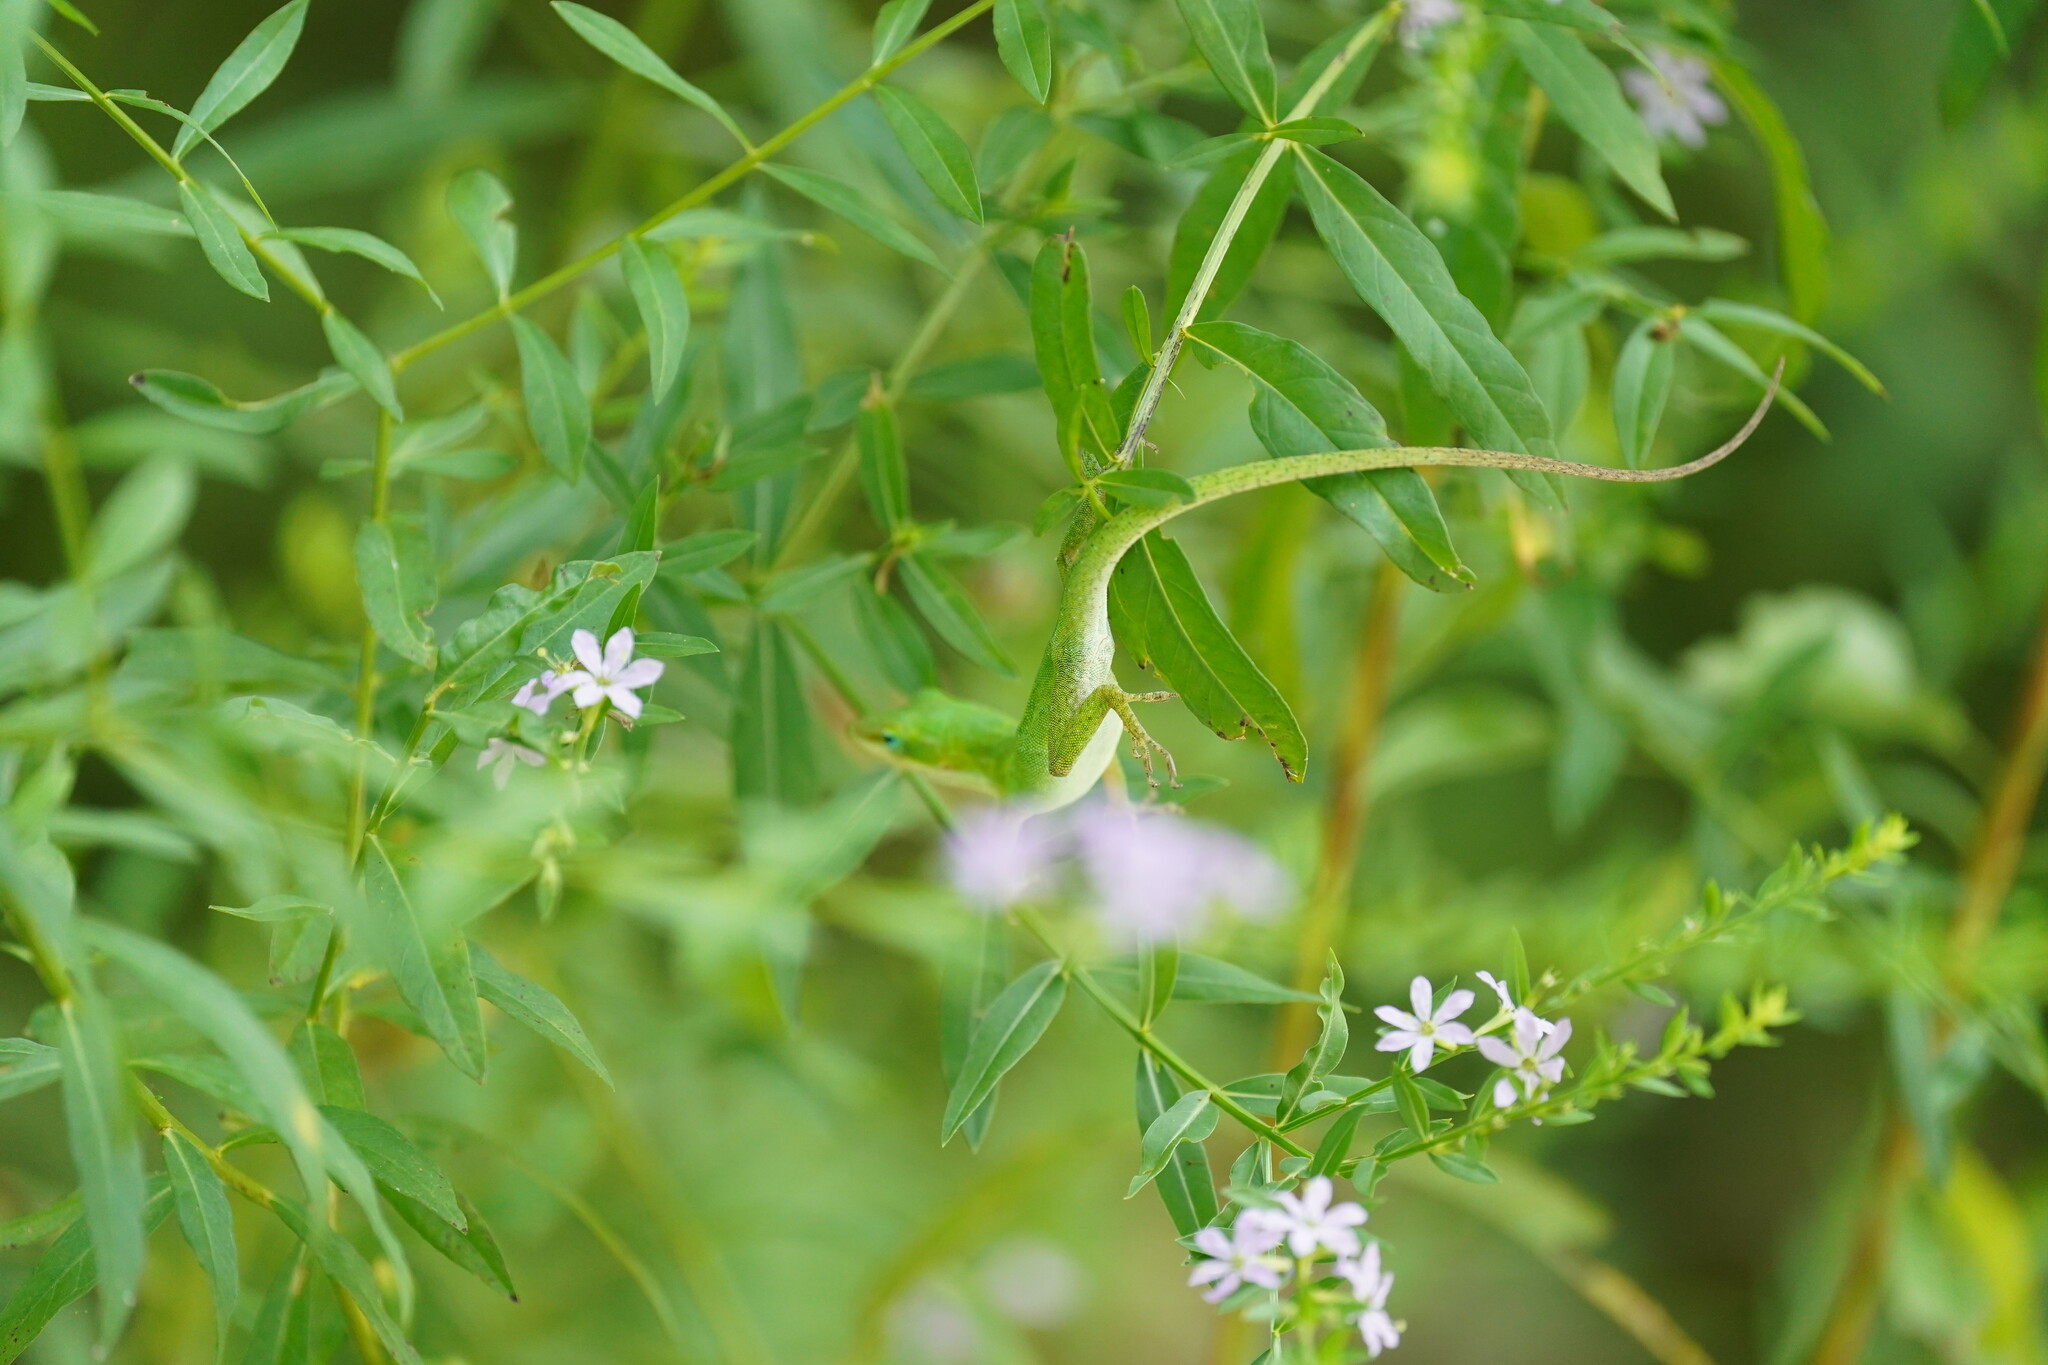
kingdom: Animalia
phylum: Chordata
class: Squamata
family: Dactyloidae
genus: Anolis
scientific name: Anolis carolinensis
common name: Green anole
